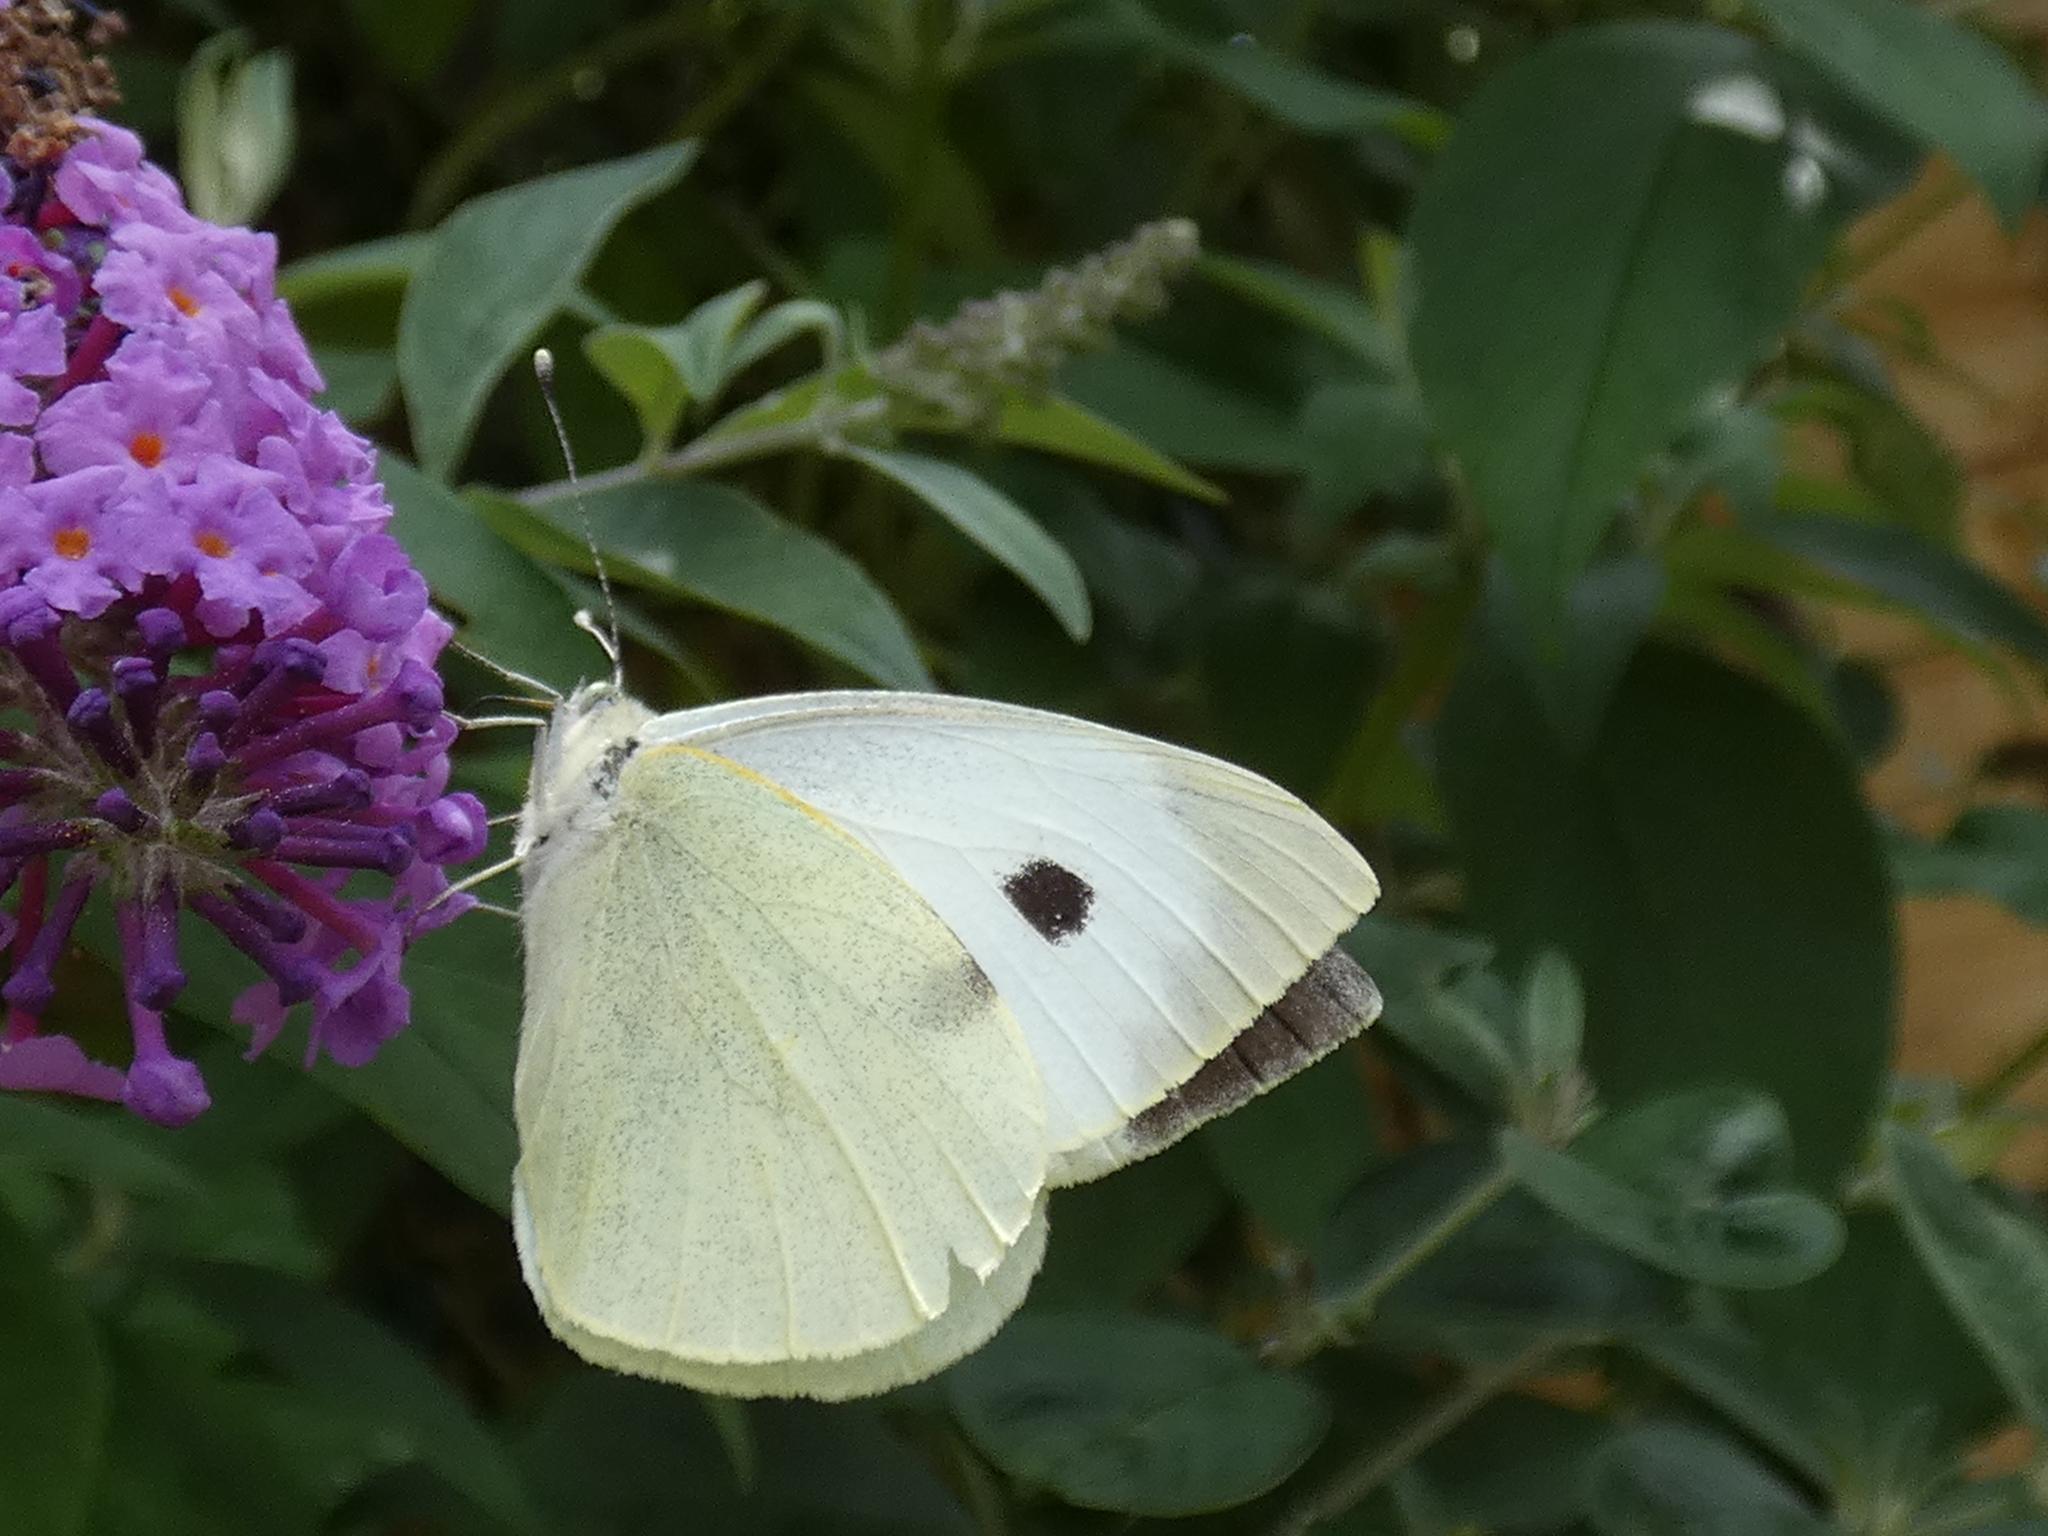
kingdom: Animalia
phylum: Arthropoda
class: Insecta
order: Lepidoptera
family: Pieridae
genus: Pieris
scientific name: Pieris brassicae
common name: Large white
